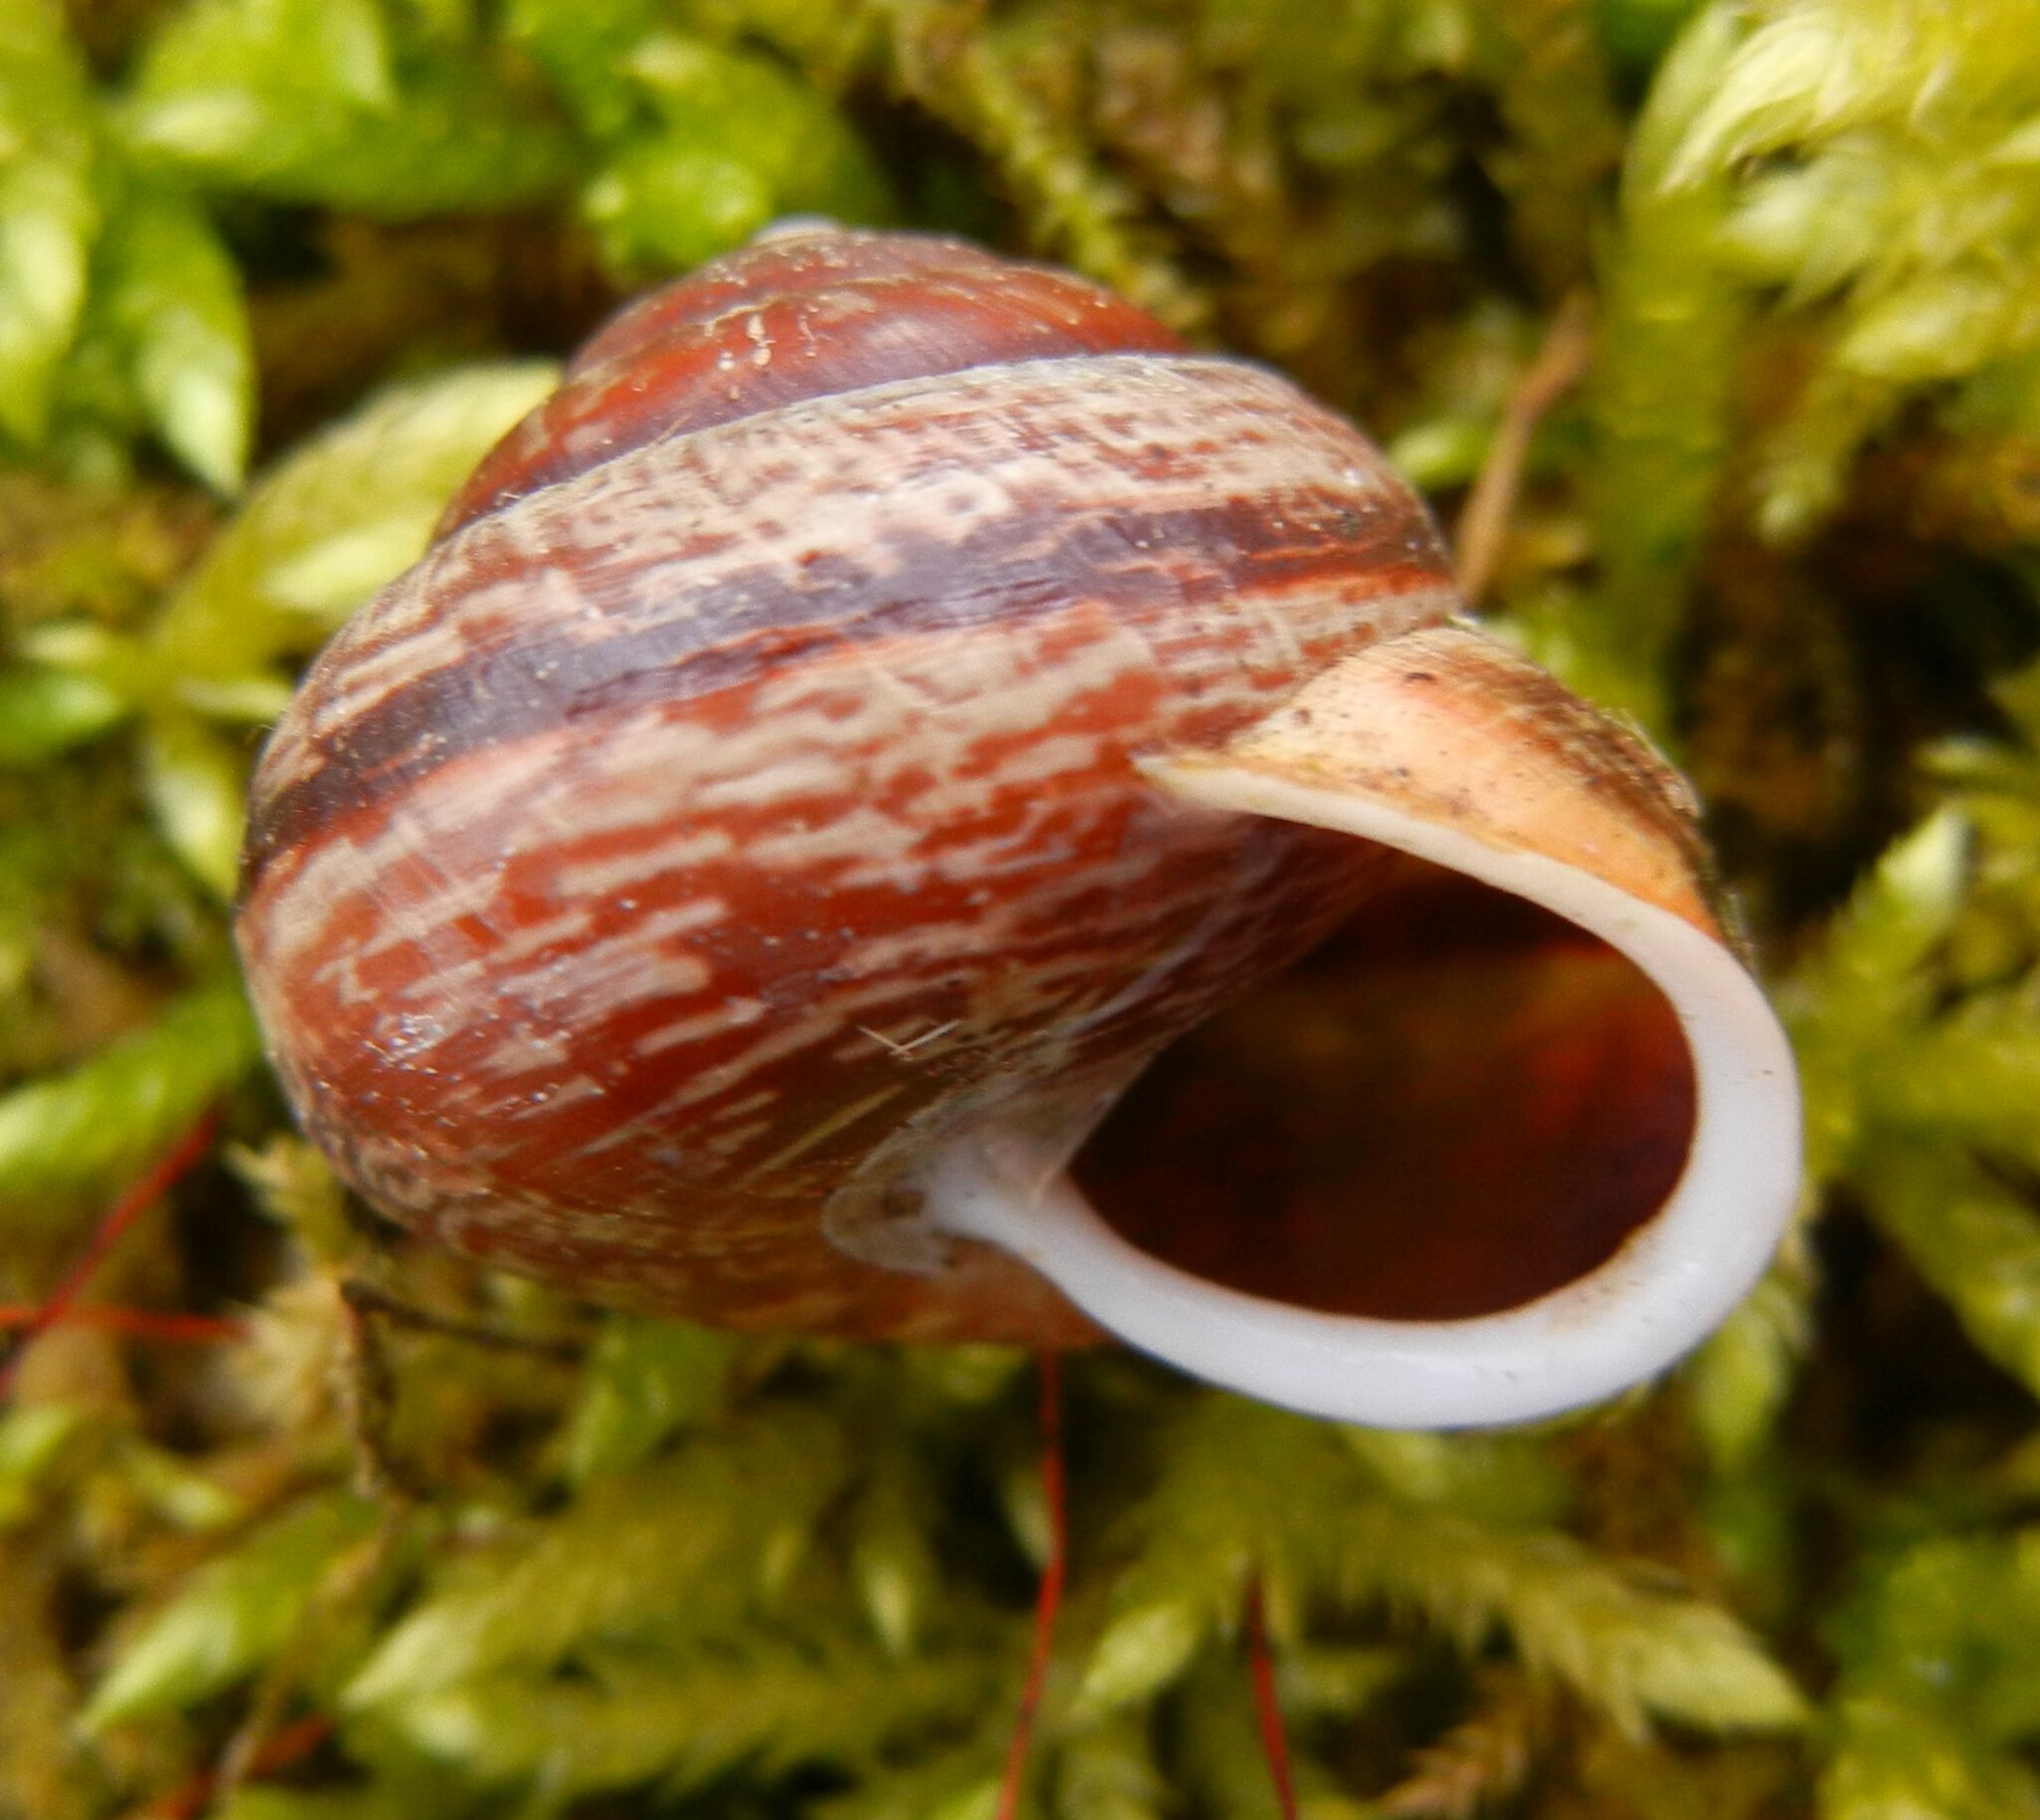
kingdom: Animalia
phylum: Mollusca
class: Gastropoda
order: Stylommatophora
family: Helicidae
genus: Arianta
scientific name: Arianta arbustorum
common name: Copse snail
